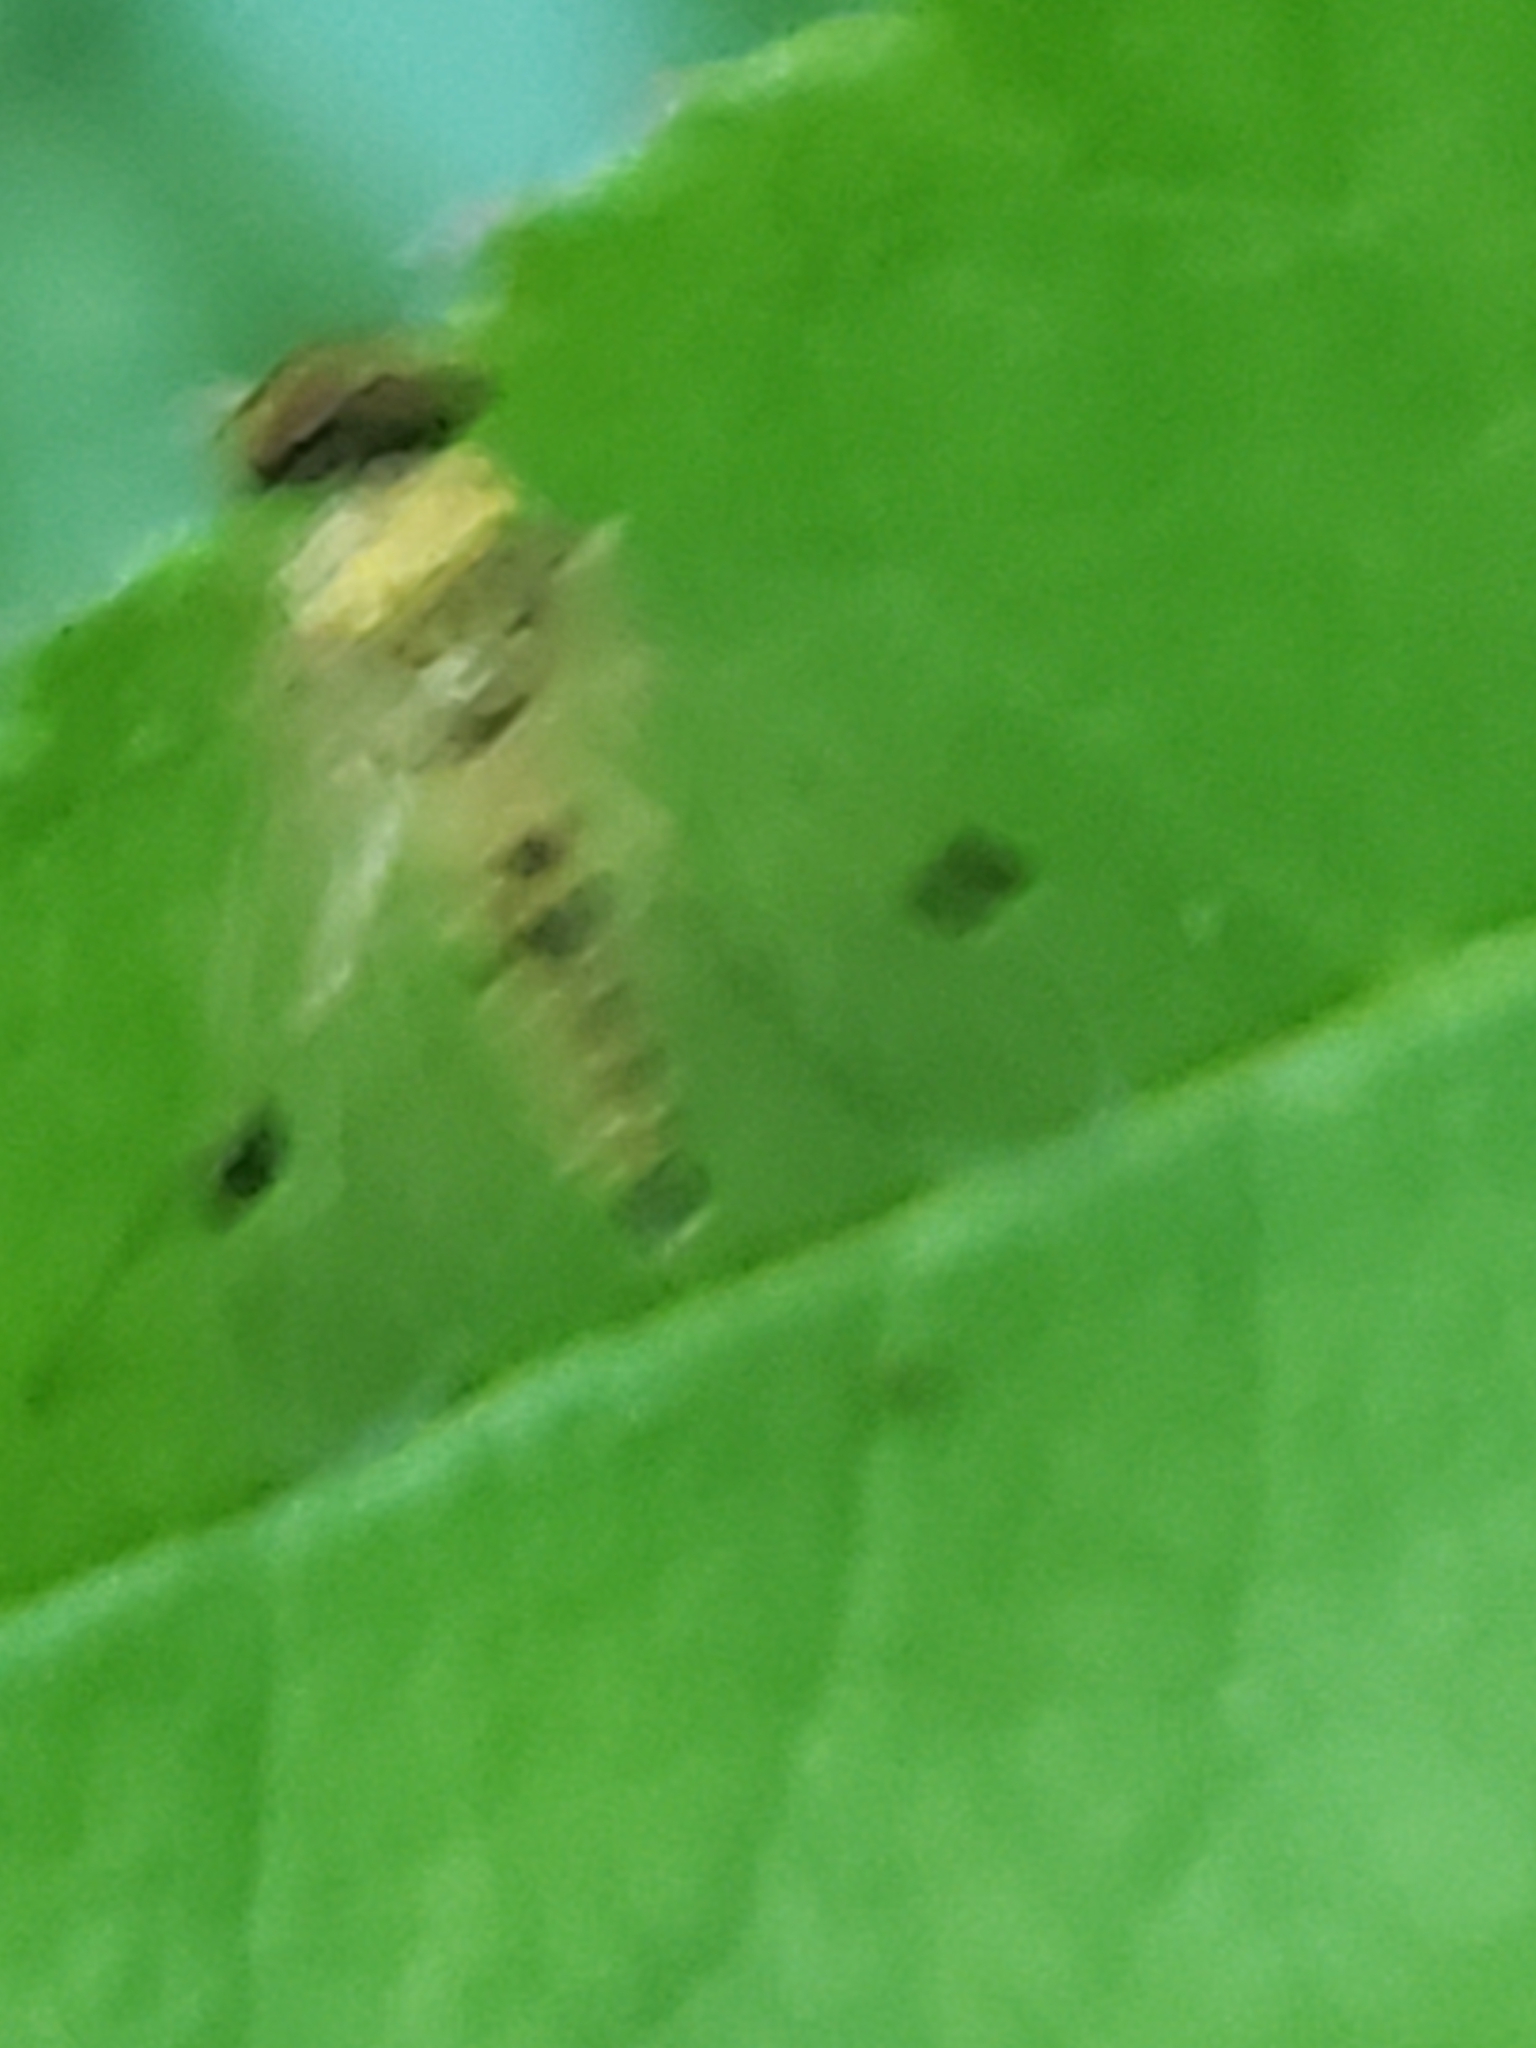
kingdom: Animalia
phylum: Arthropoda
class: Insecta
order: Diptera
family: Rhagionidae
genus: Chrysopilus
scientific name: Chrysopilus modestus
